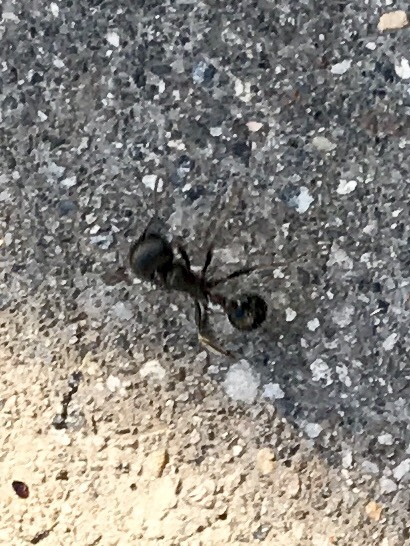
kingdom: Animalia
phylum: Arthropoda
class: Insecta
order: Hymenoptera
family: Formicidae
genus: Pogonomyrmex
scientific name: Pogonomyrmex rugosus
